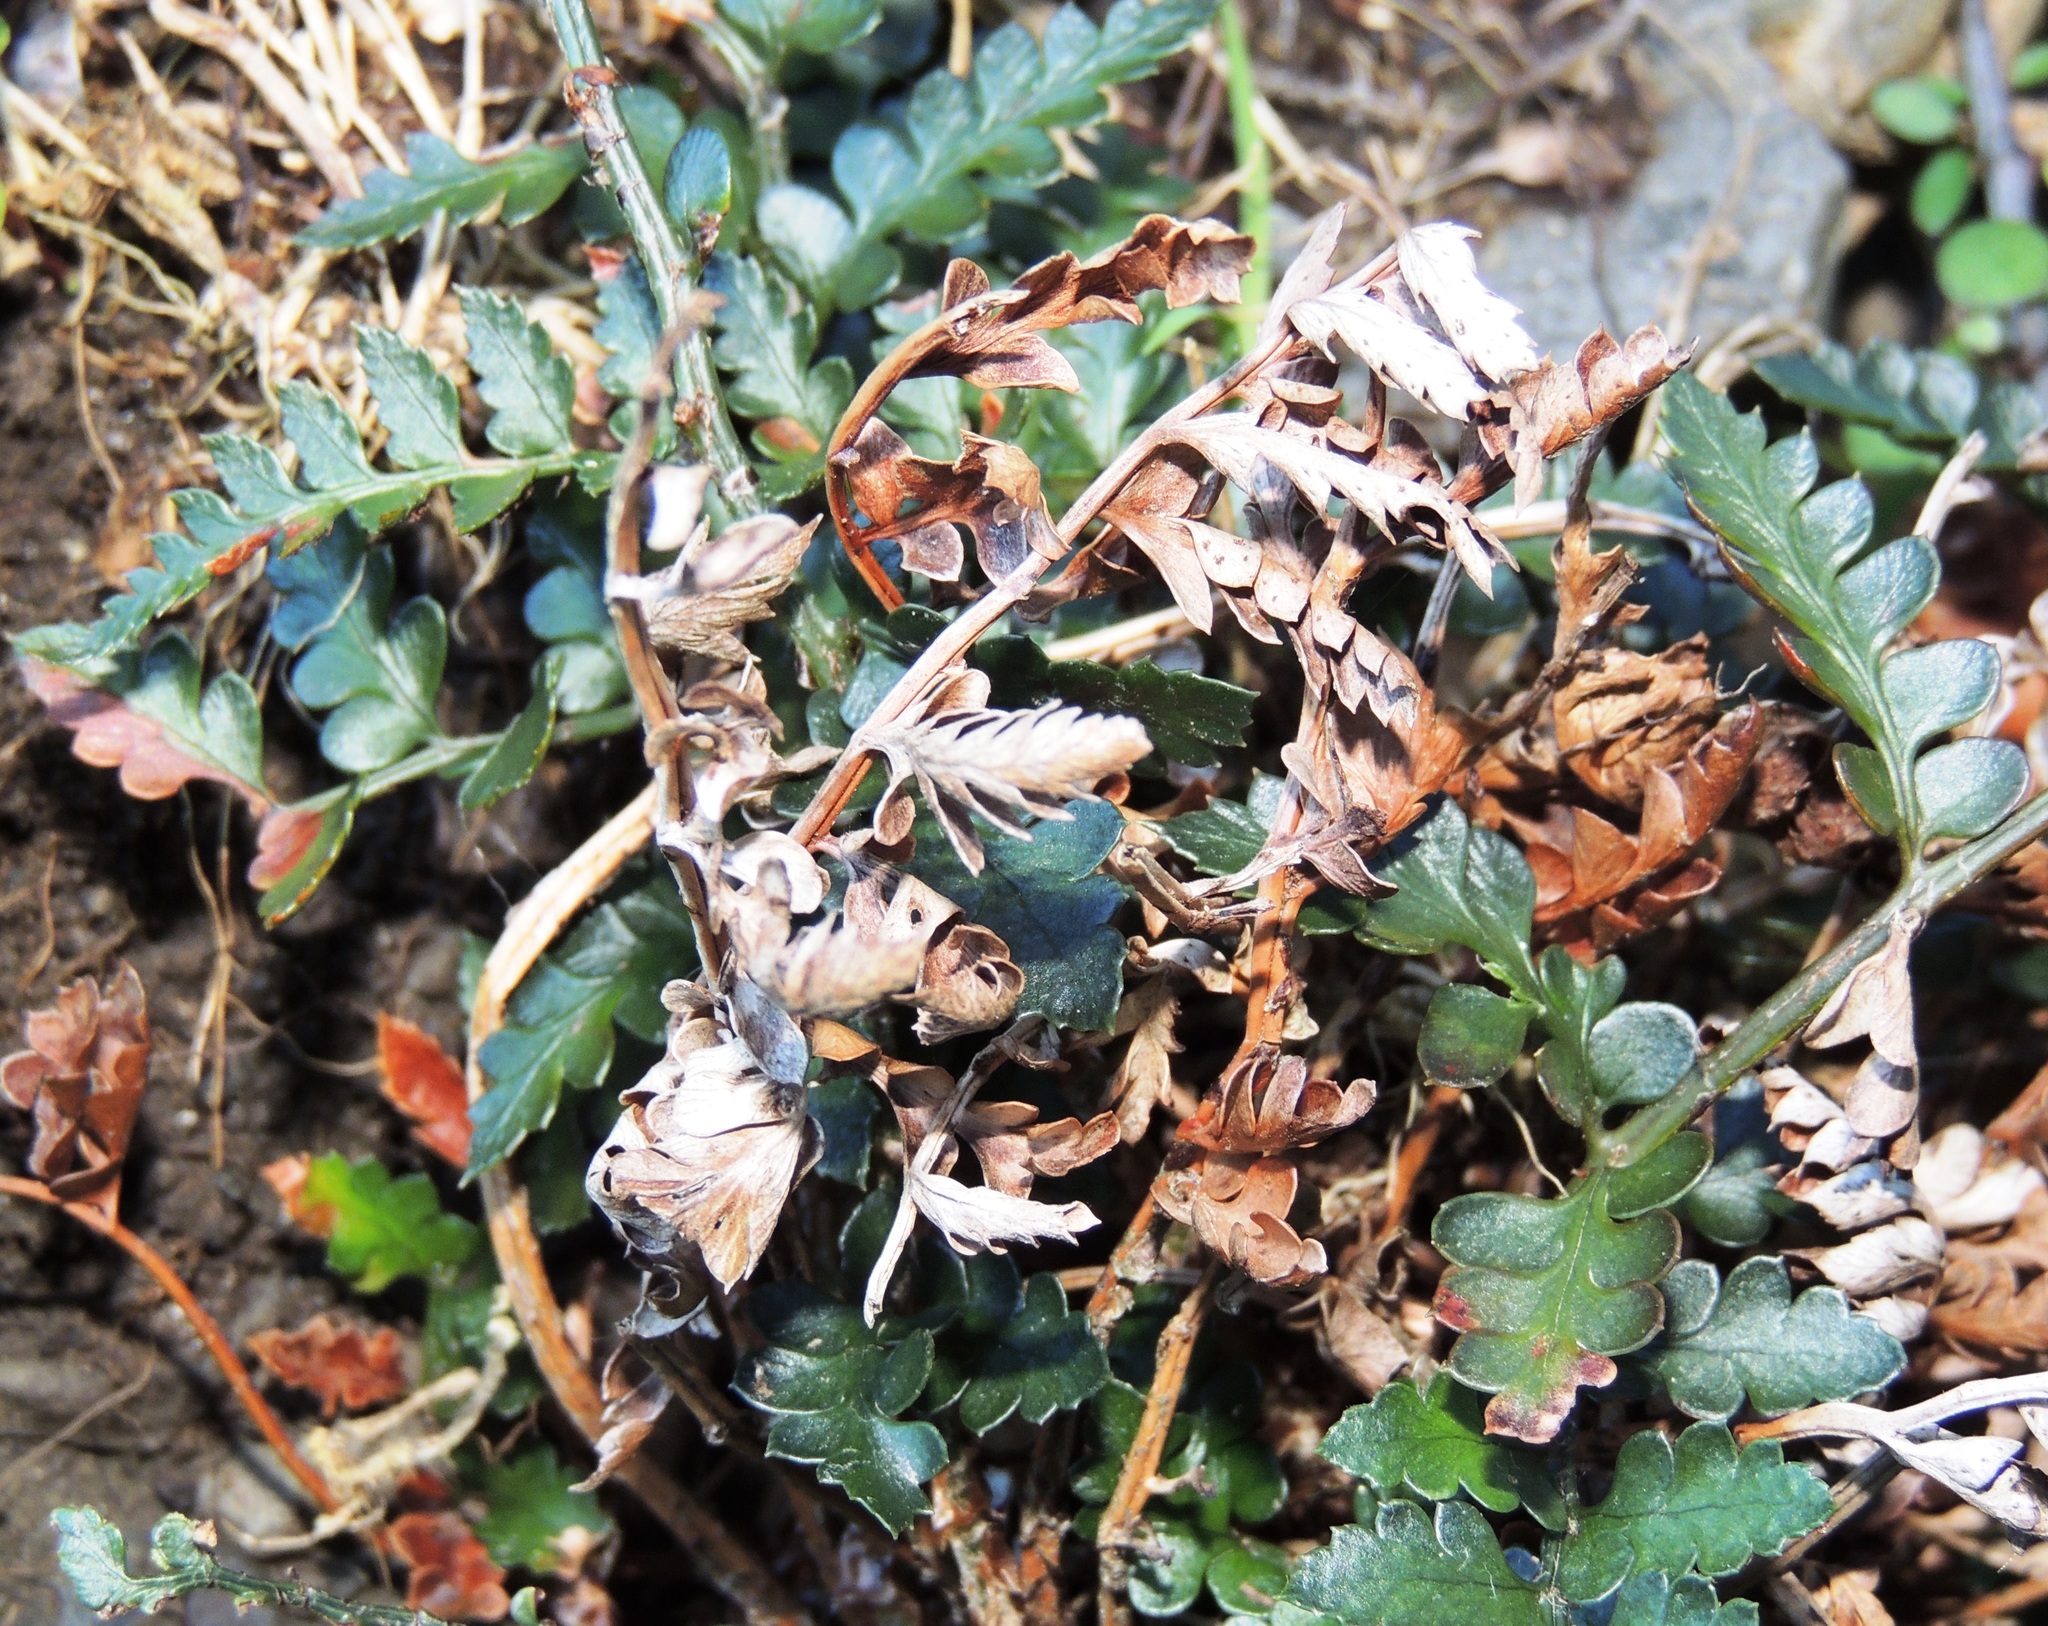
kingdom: Plantae
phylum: Tracheophyta
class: Polypodiopsida
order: Polypodiales
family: Dryopteridaceae
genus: Polystichum
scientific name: Polystichum oculatum
